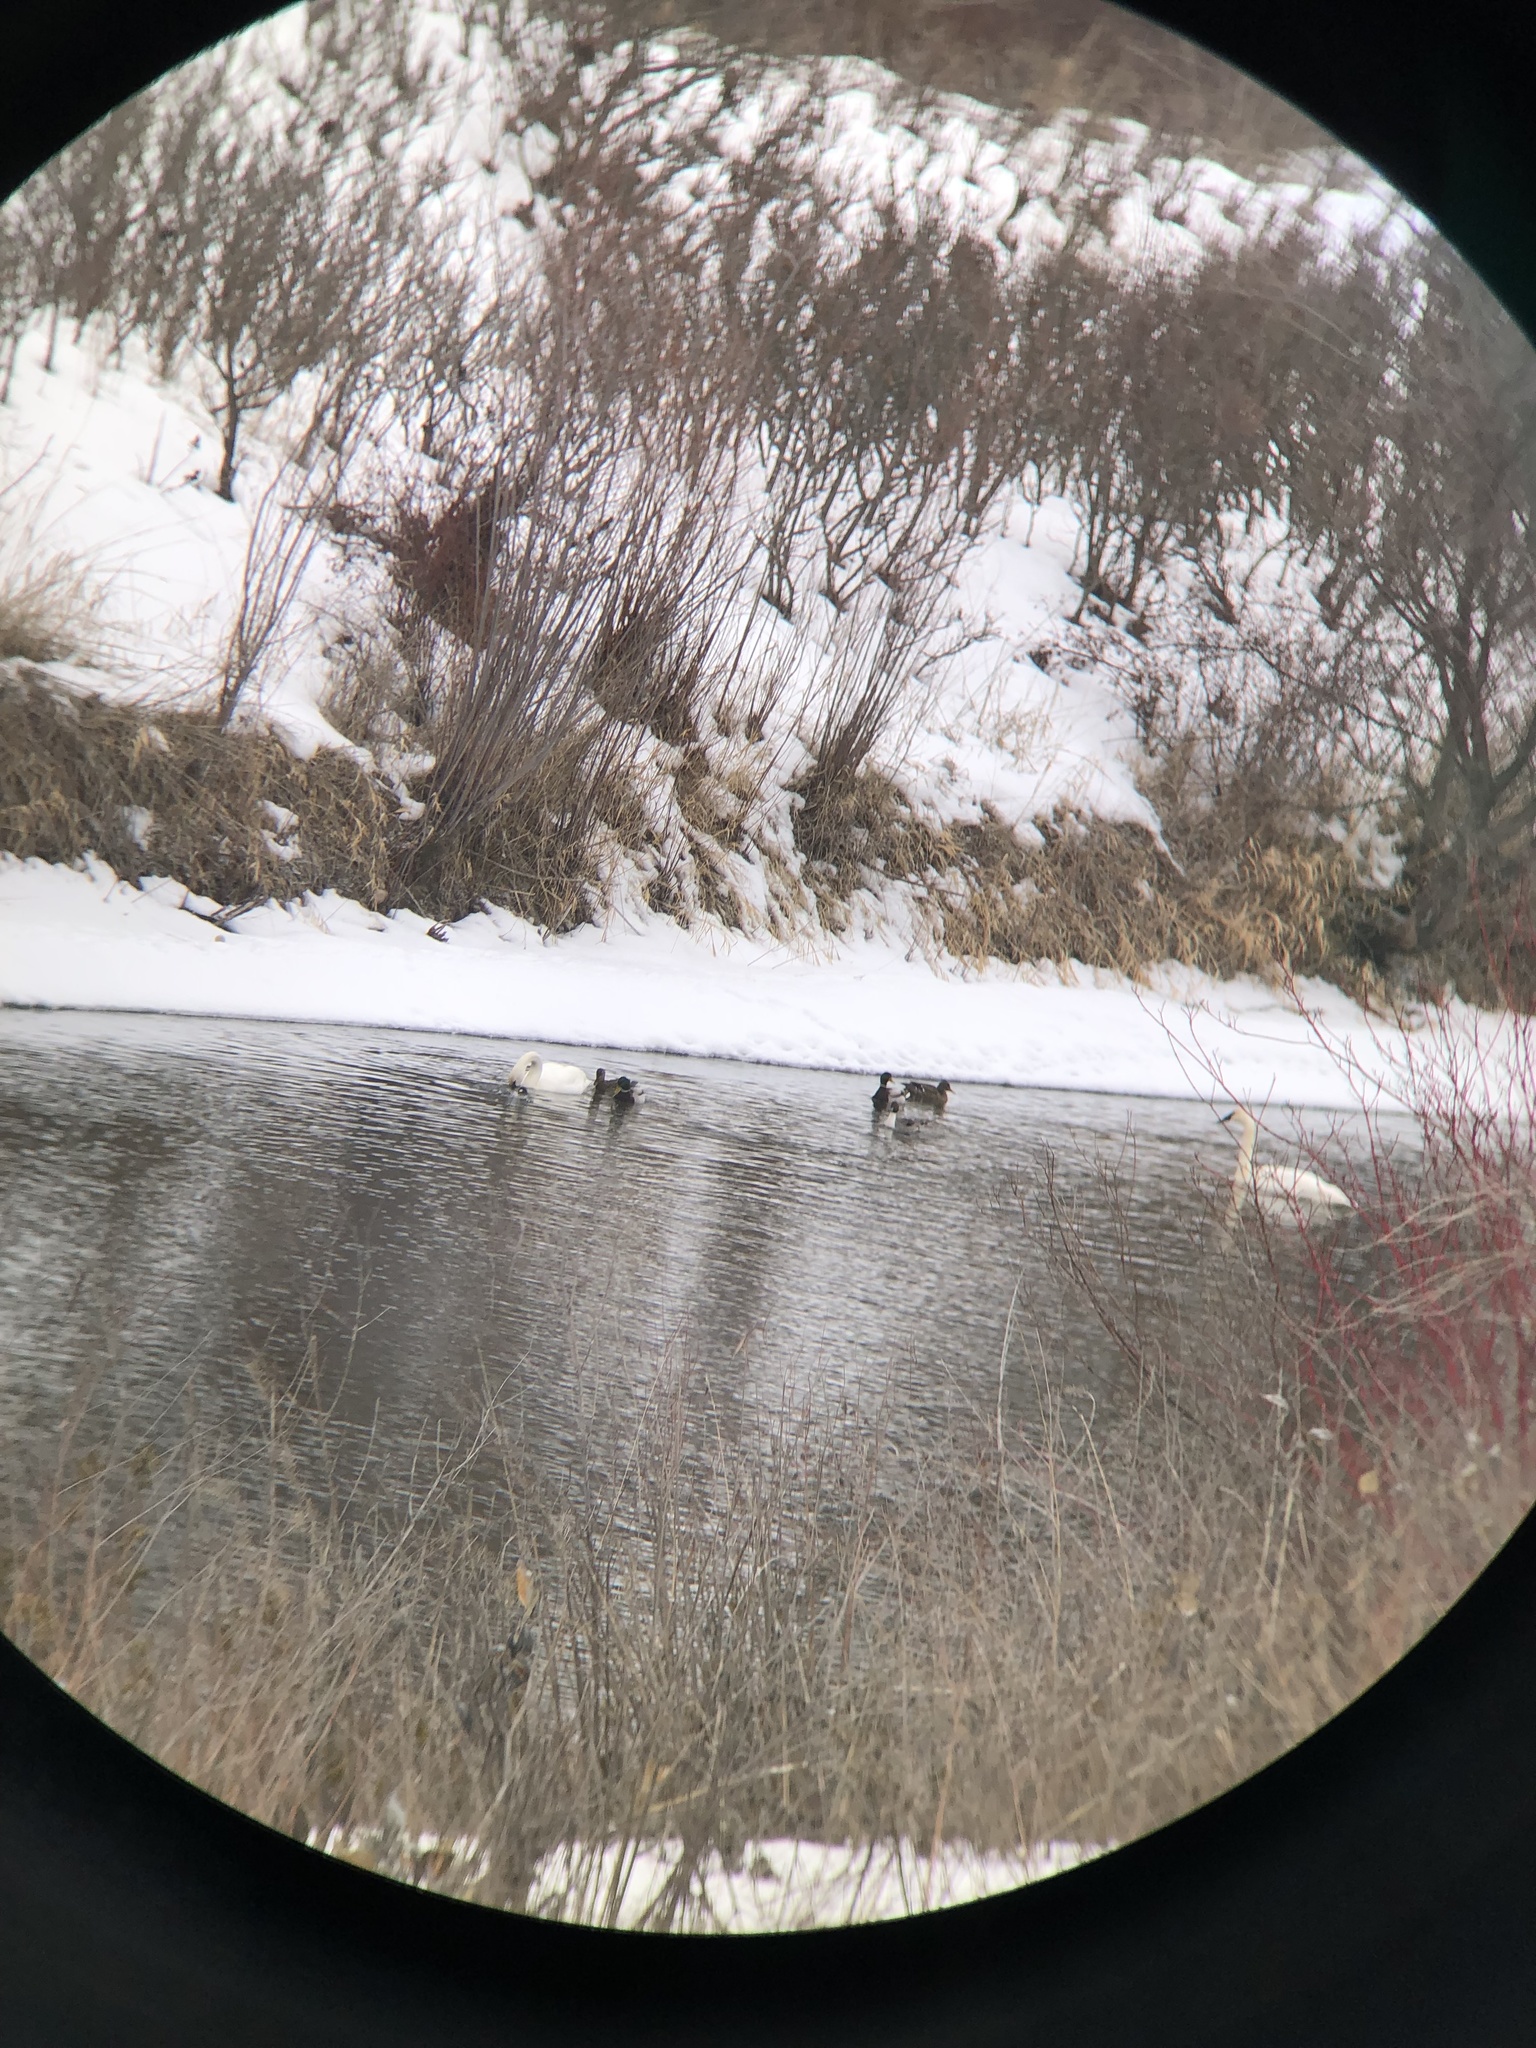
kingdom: Animalia
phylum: Chordata
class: Aves
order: Anseriformes
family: Anatidae
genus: Cygnus
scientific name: Cygnus buccinator
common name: Trumpeter swan
